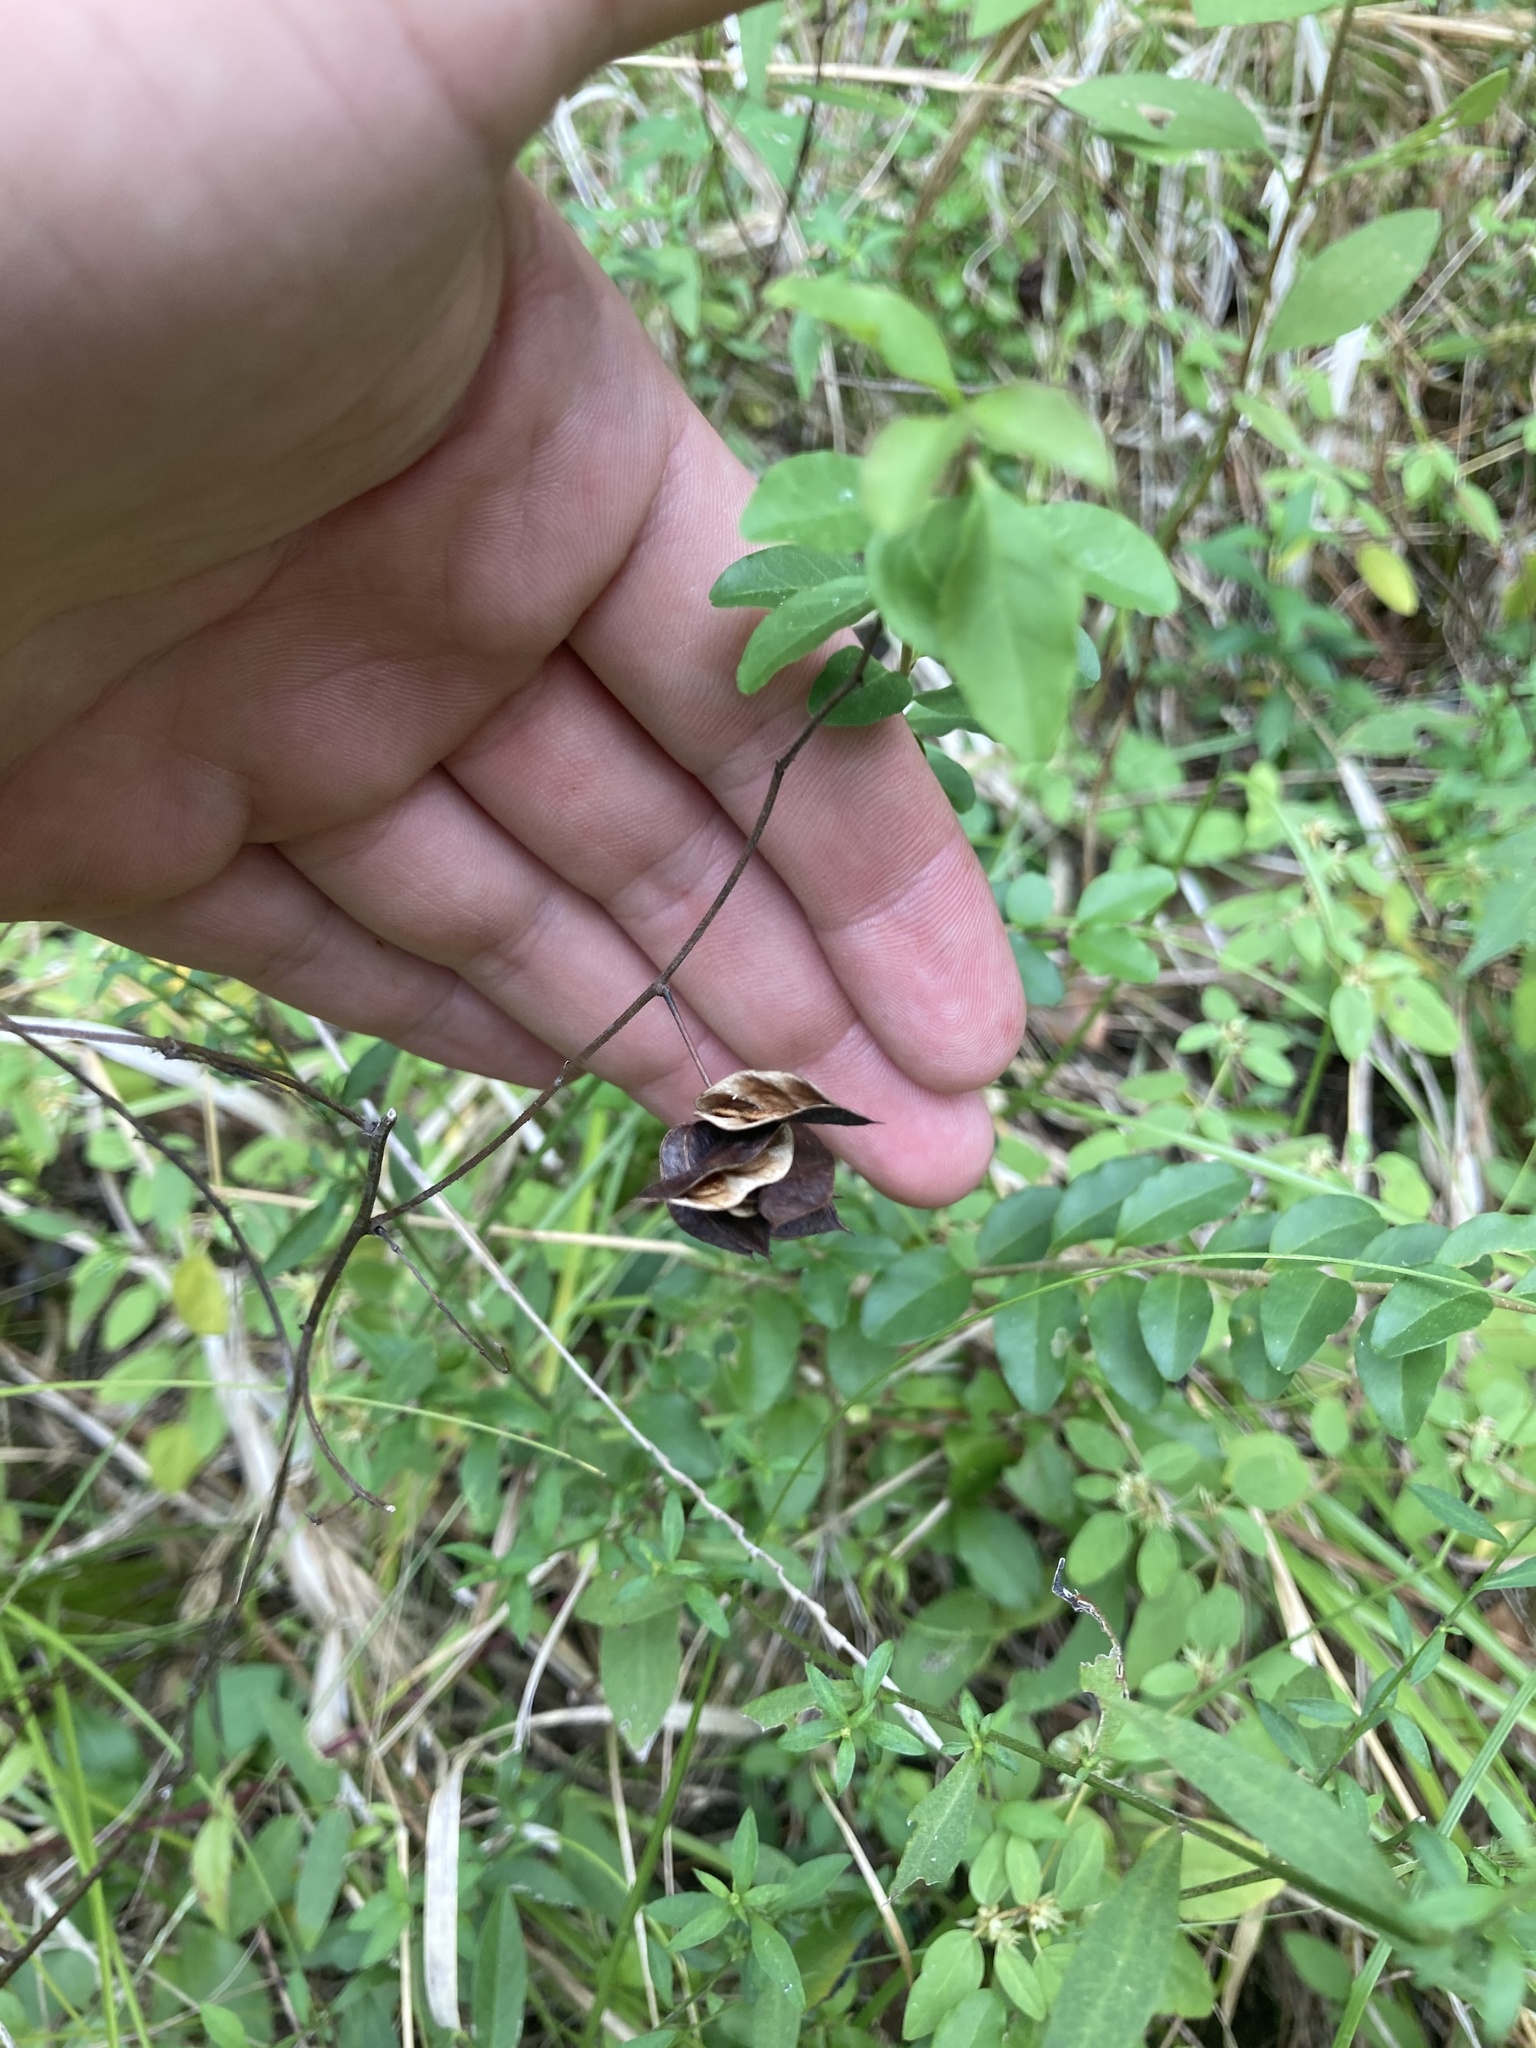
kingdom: Plantae
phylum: Tracheophyta
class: Magnoliopsida
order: Fabales
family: Fabaceae
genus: Desmanthus
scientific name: Desmanthus illinoensis
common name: Illinois bundle-flower
